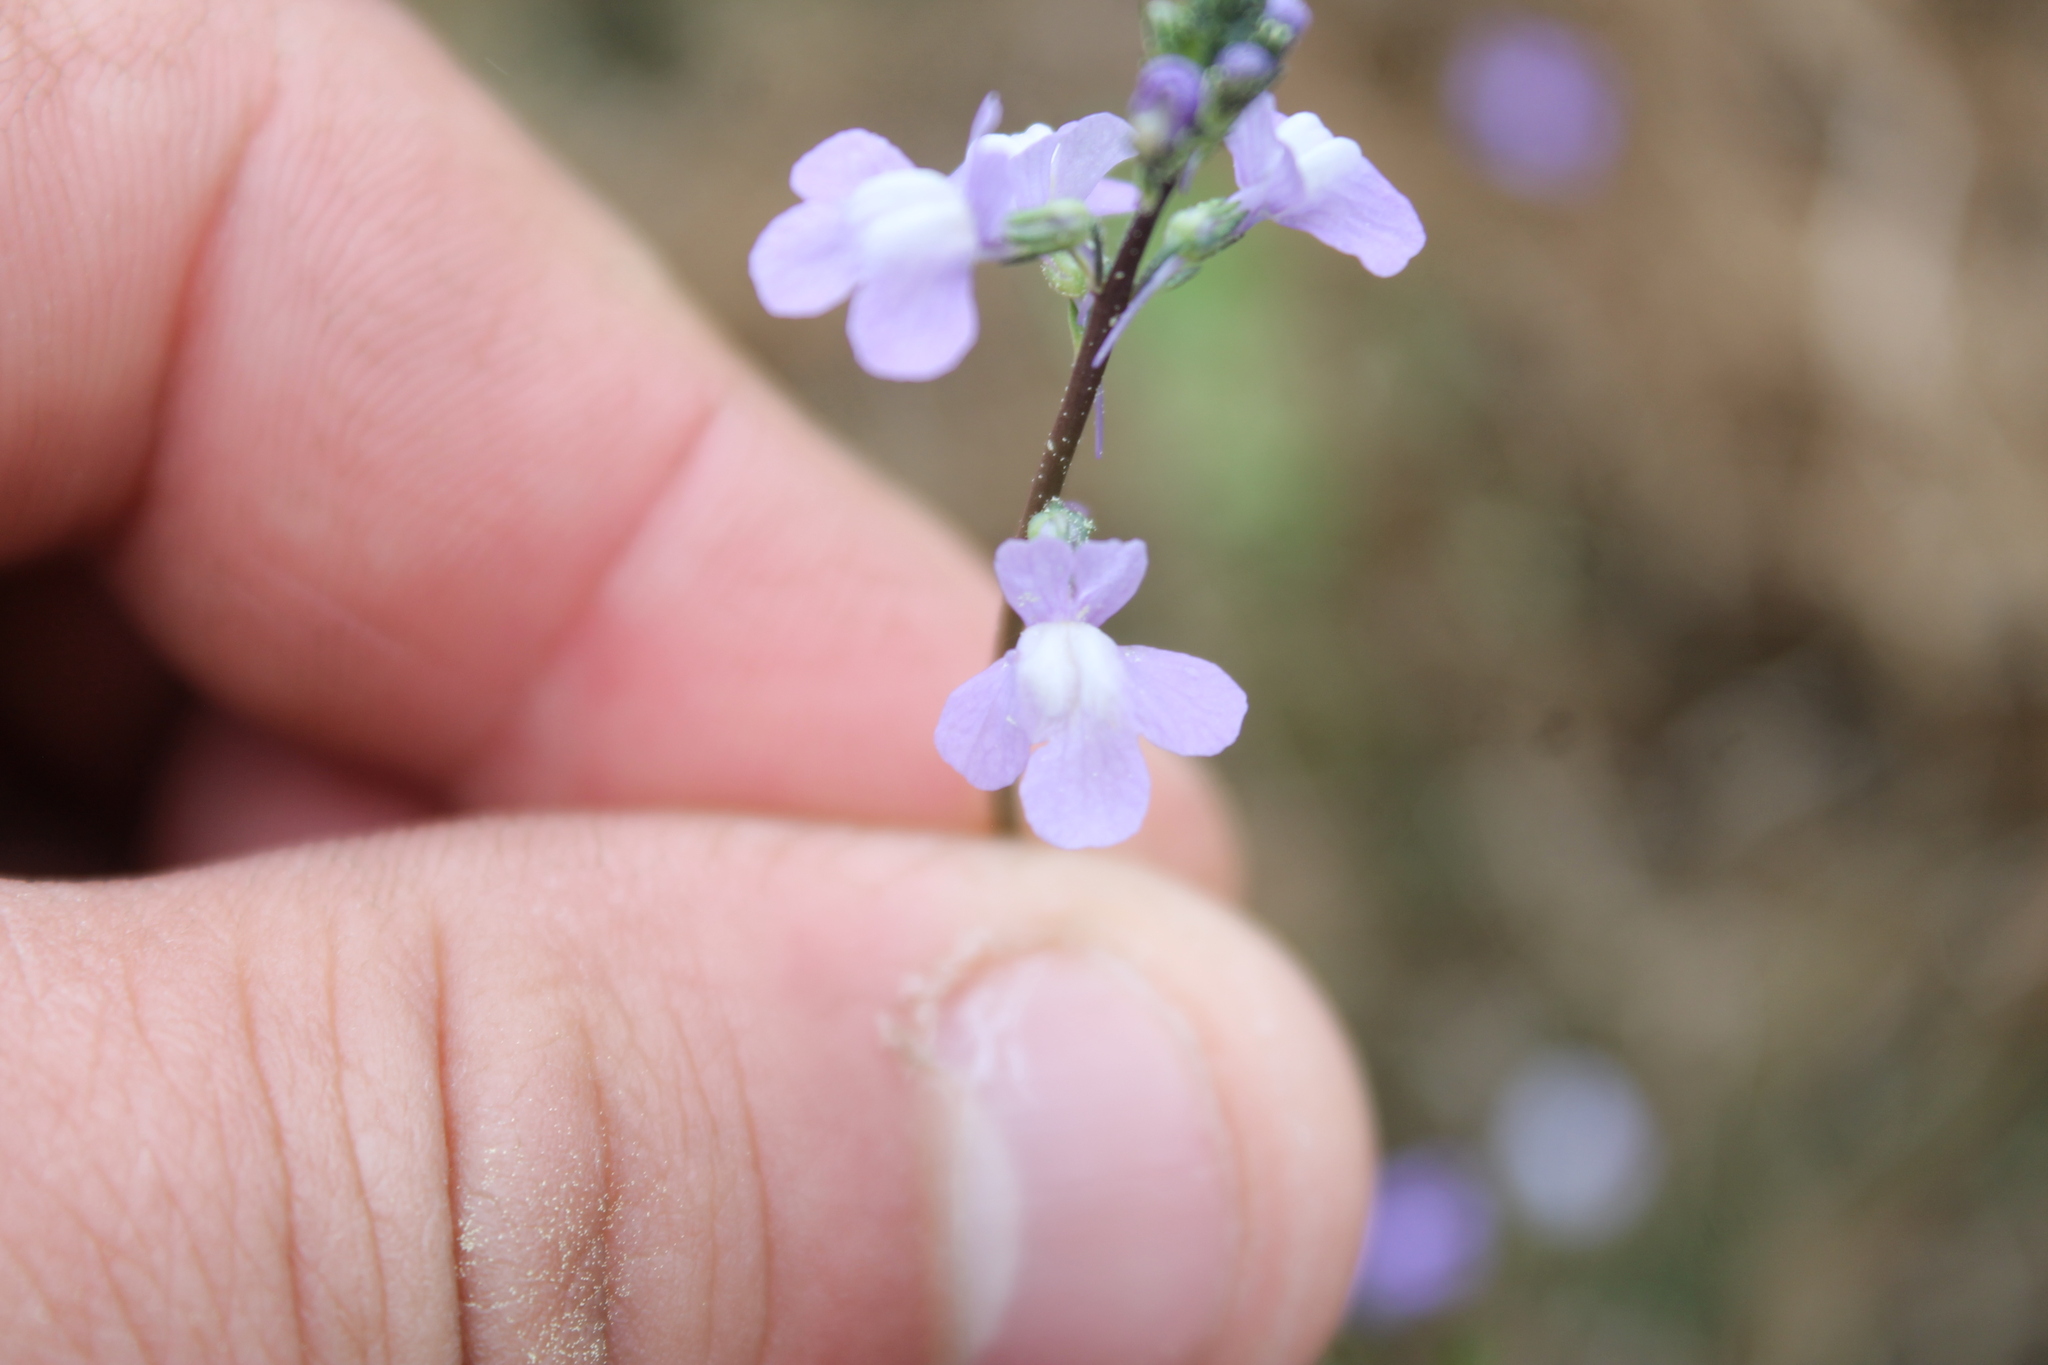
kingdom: Plantae
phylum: Tracheophyta
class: Magnoliopsida
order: Lamiales
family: Plantaginaceae
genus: Nuttallanthus
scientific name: Nuttallanthus canadensis
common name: Blue toadflax
